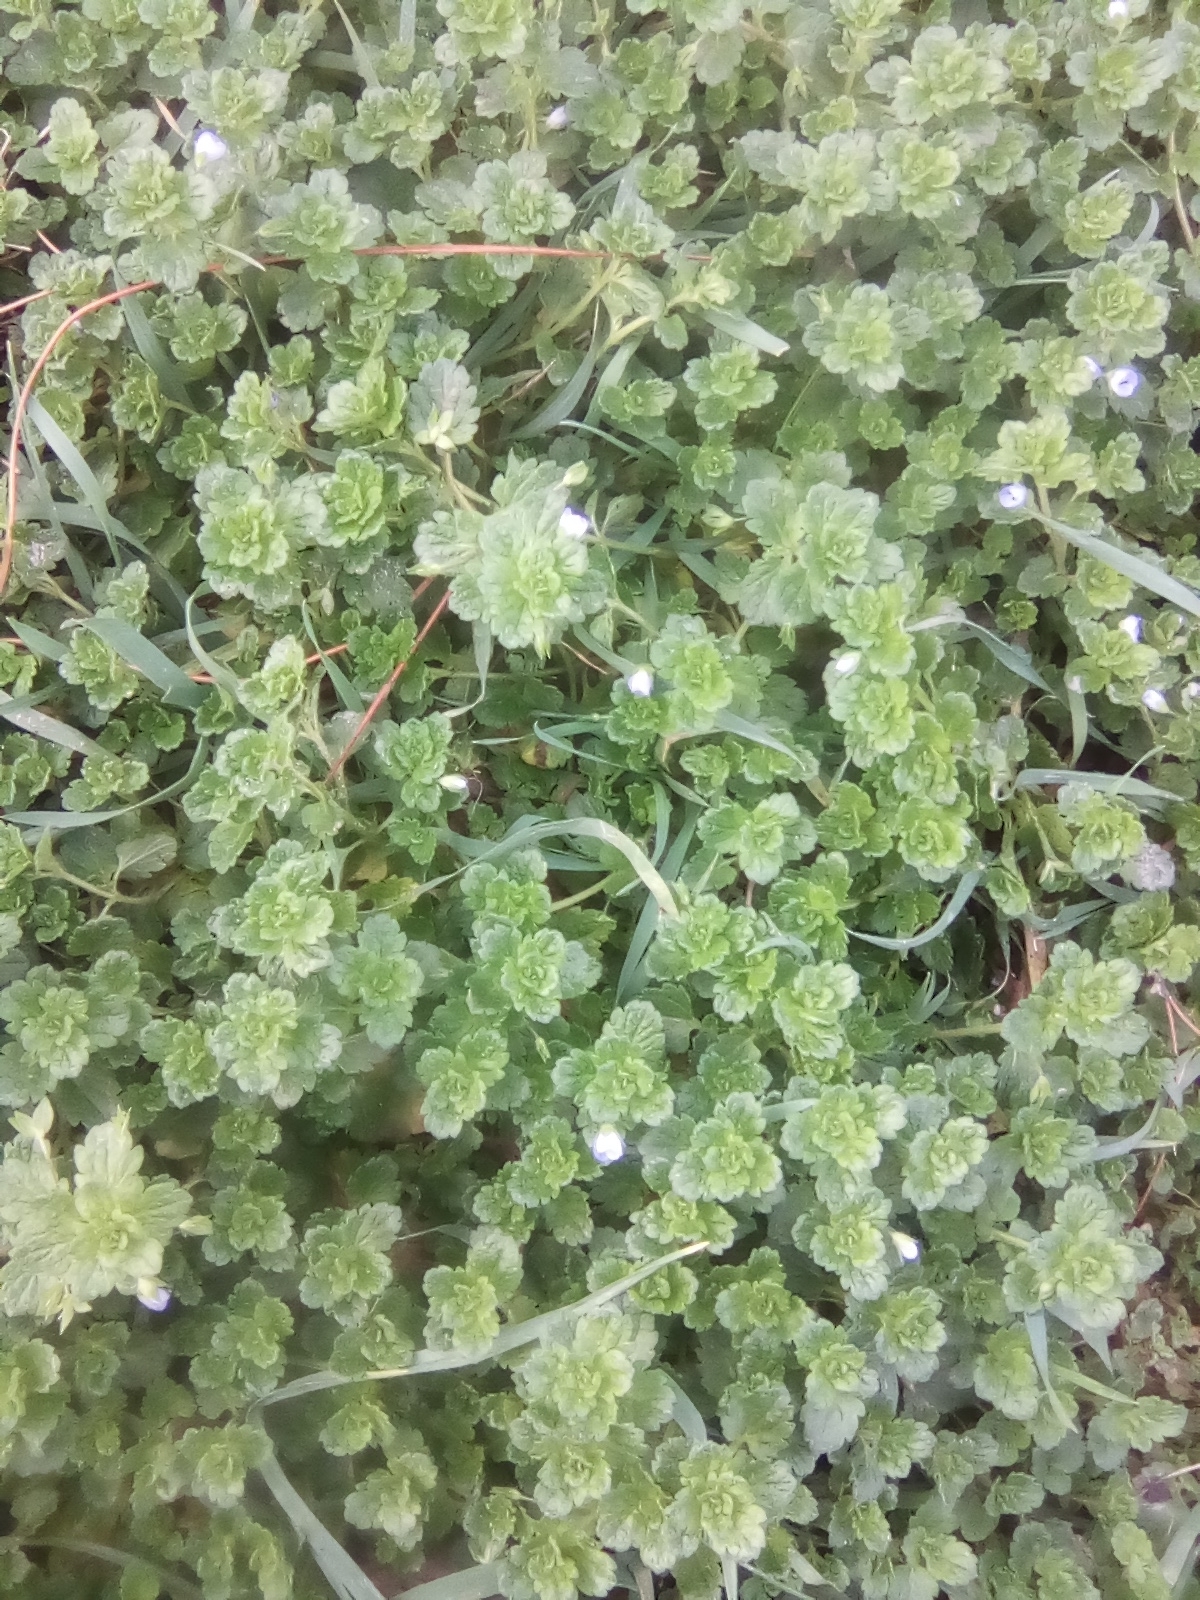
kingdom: Plantae
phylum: Tracheophyta
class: Magnoliopsida
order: Lamiales
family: Plantaginaceae
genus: Veronica
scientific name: Veronica persica
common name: Common field-speedwell
